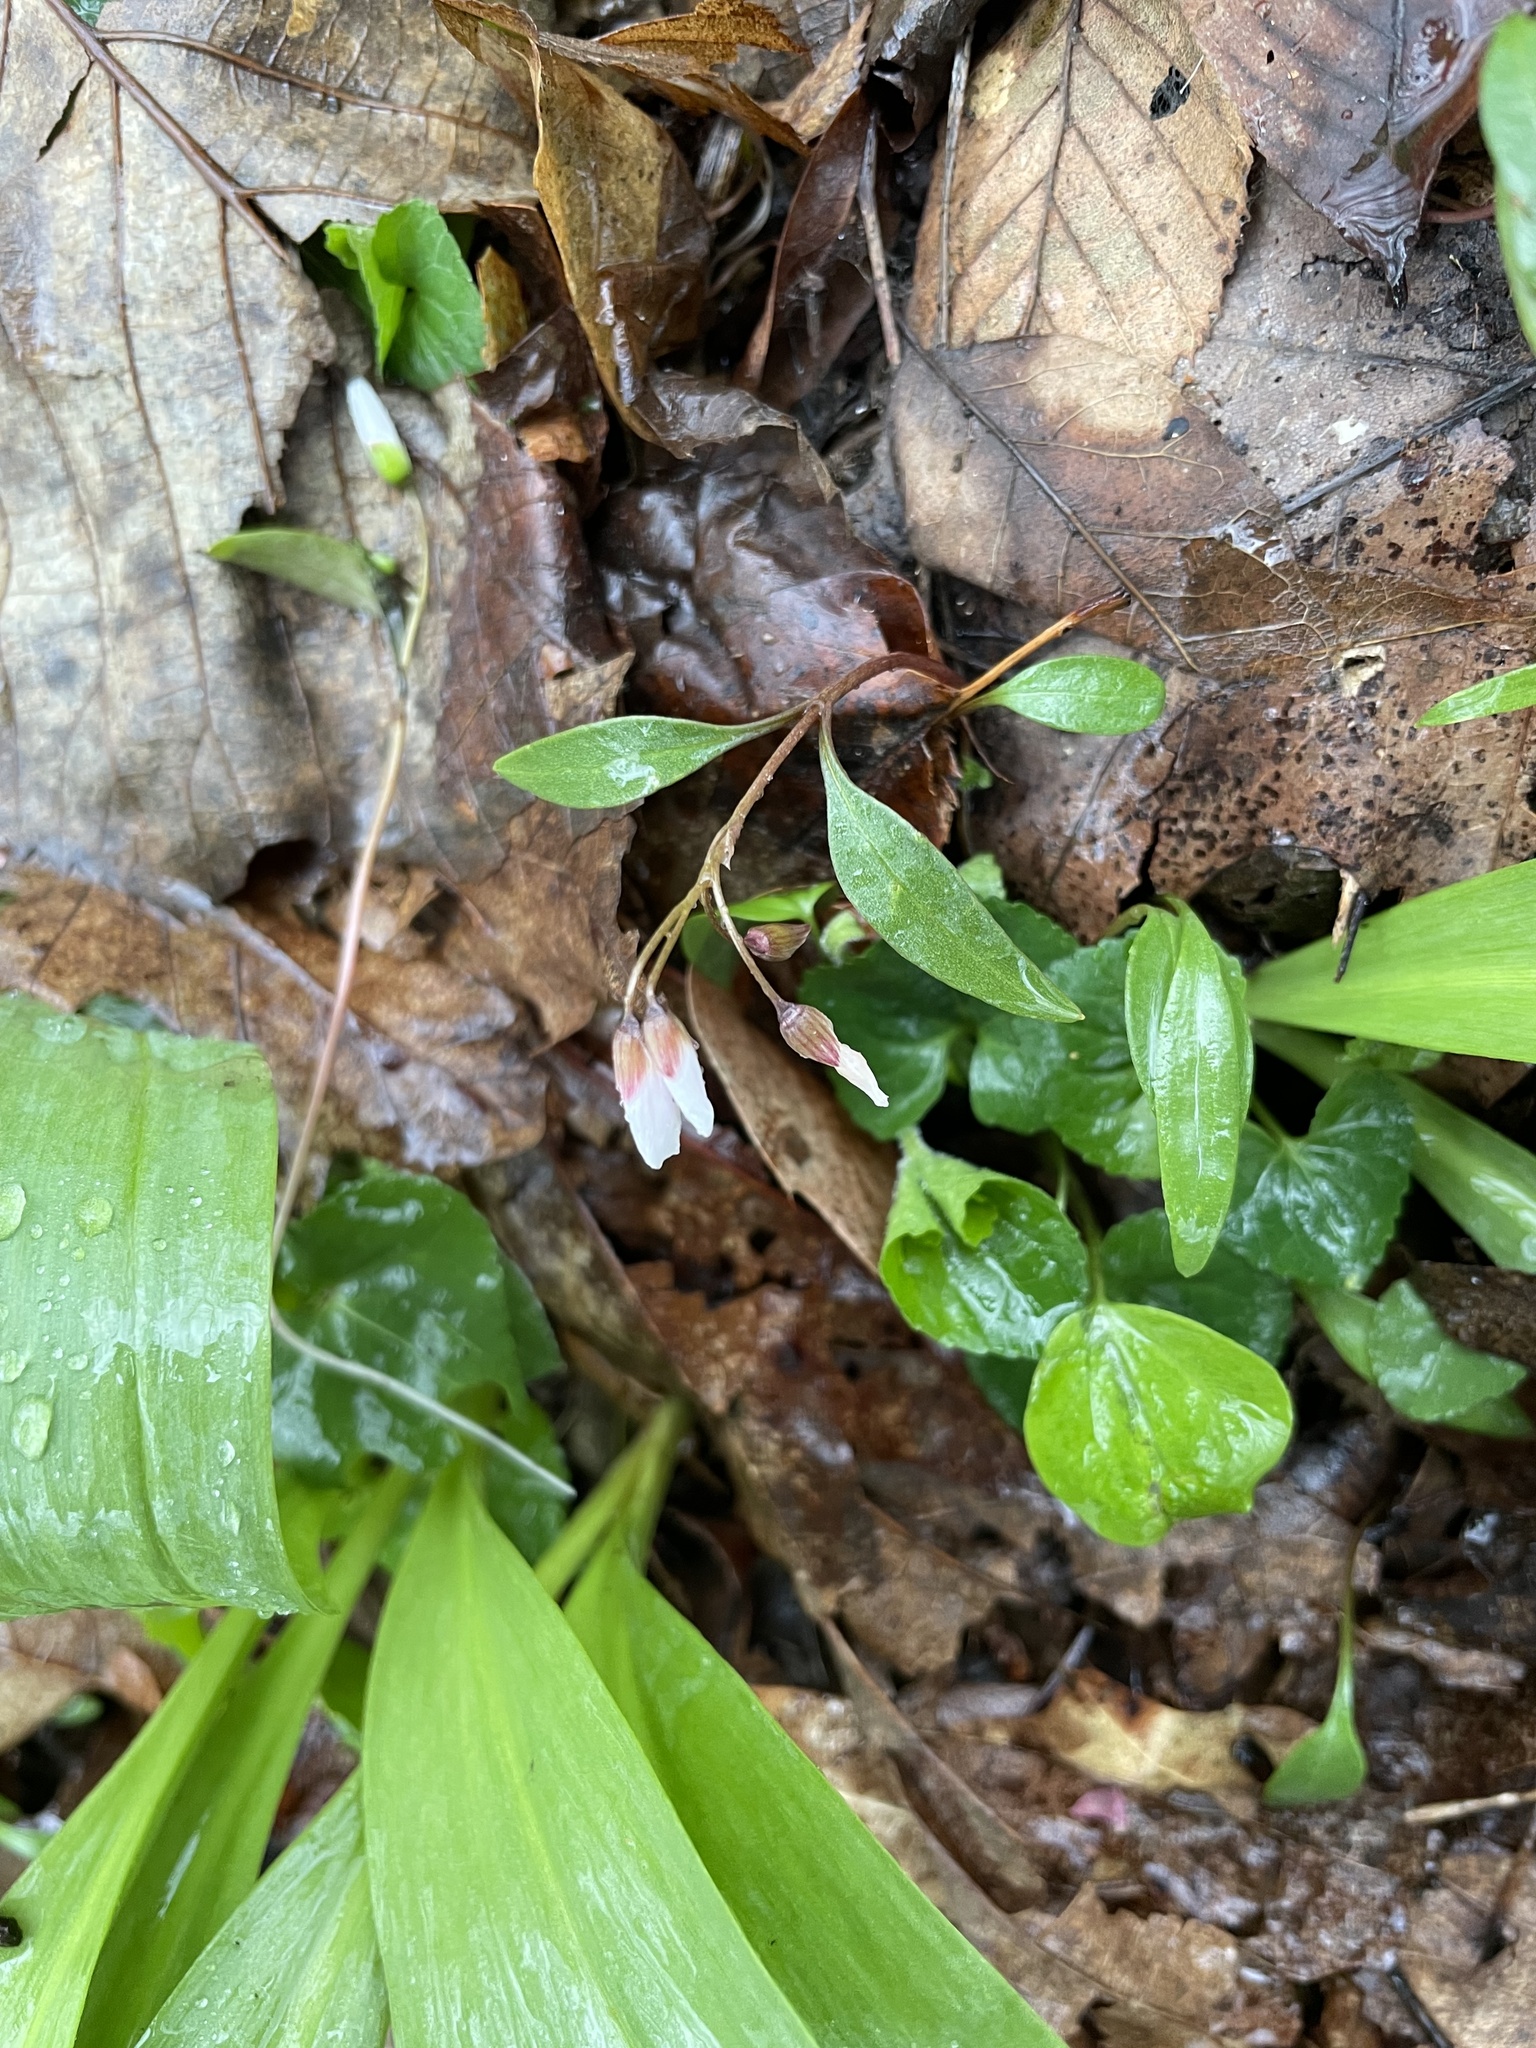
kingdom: Plantae
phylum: Tracheophyta
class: Magnoliopsida
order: Caryophyllales
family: Montiaceae
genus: Claytonia
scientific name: Claytonia caroliniana
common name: Carolina spring beauty
